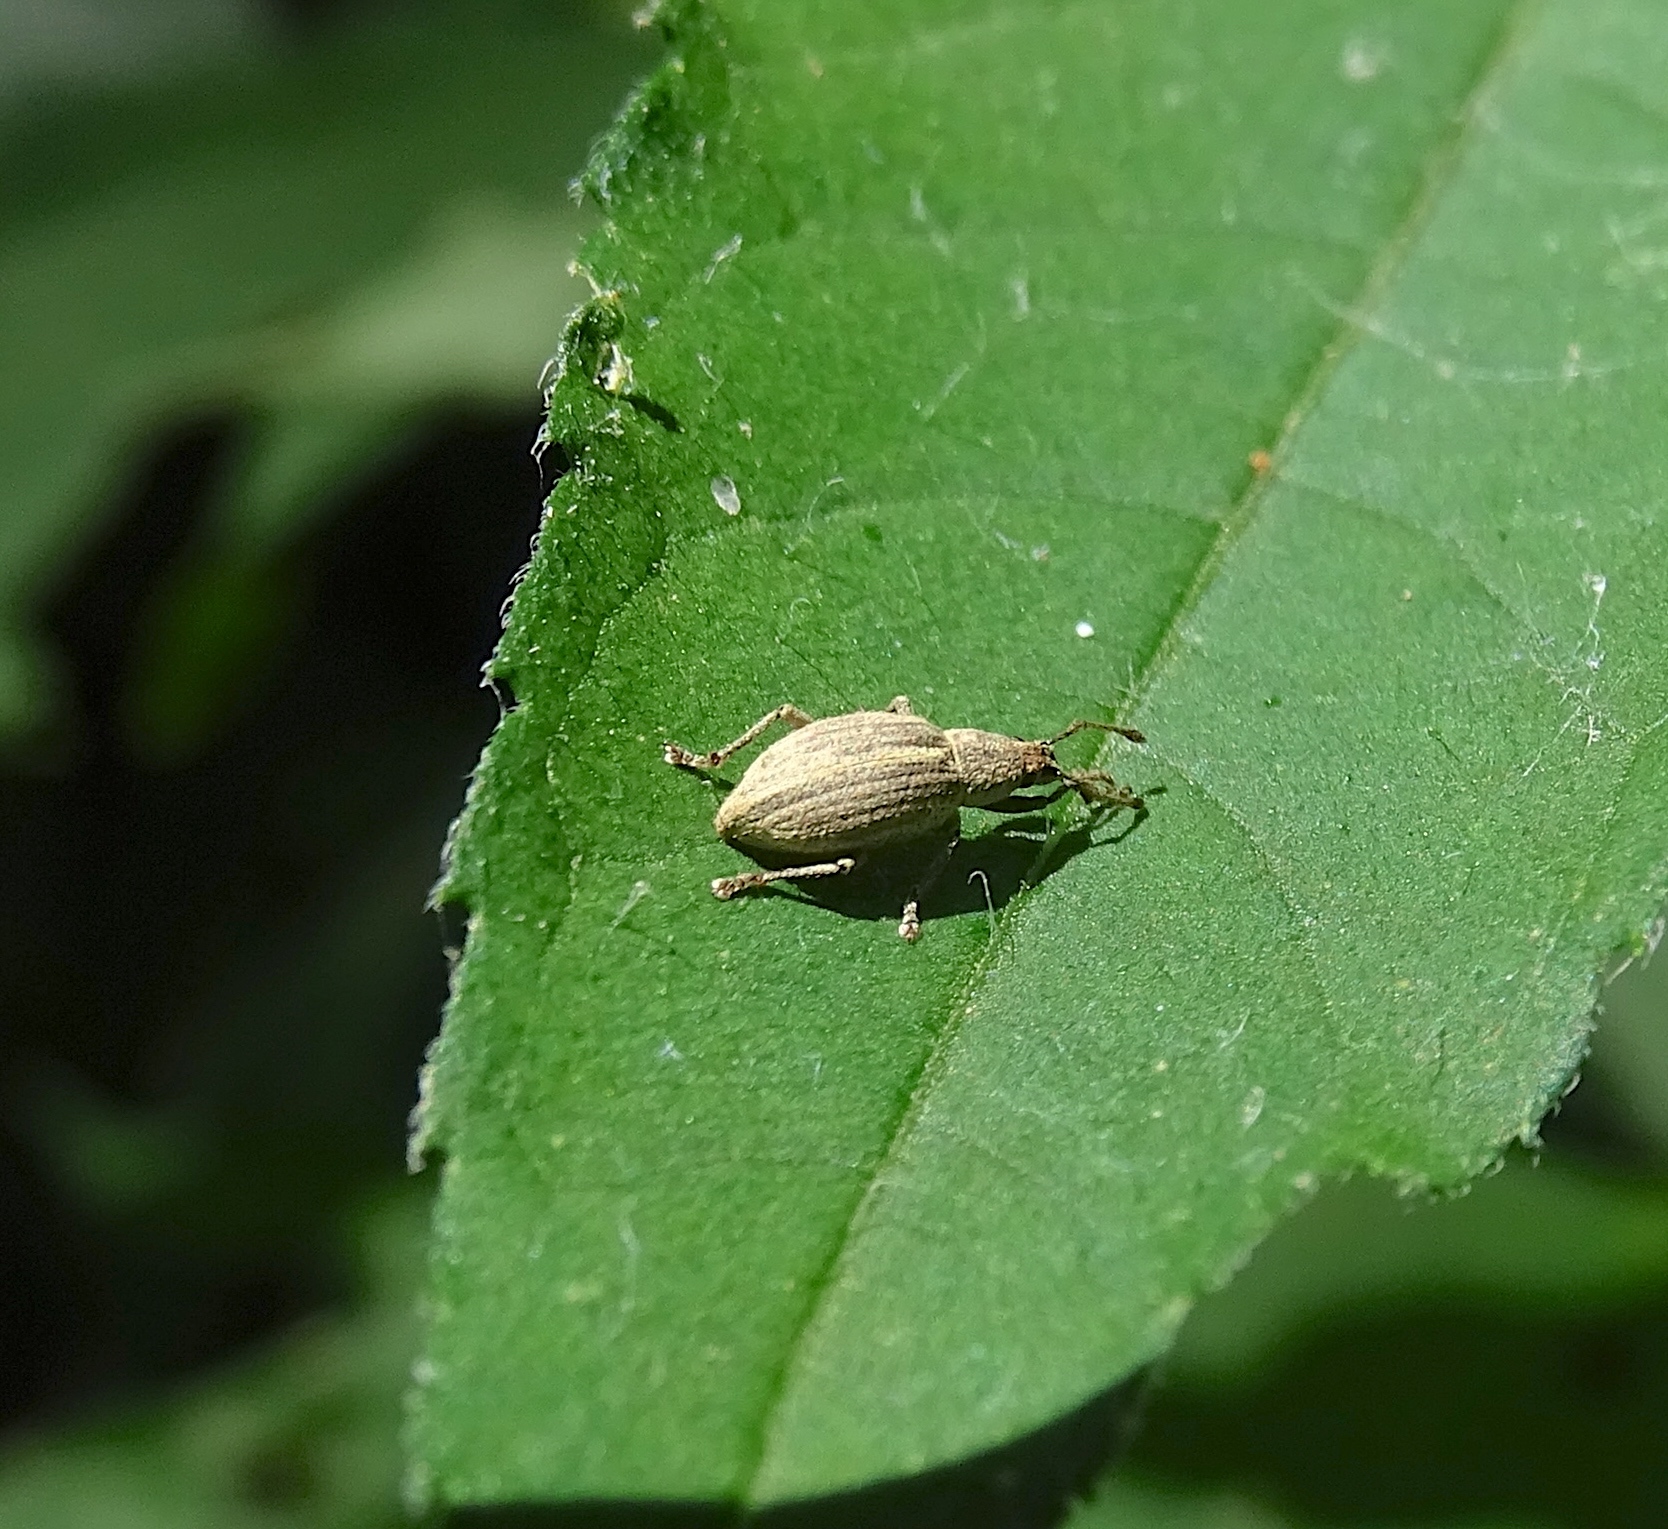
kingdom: Animalia
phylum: Arthropoda
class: Insecta
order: Coleoptera
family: Curculionidae
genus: Aphrastus
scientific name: Aphrastus taeniatus
